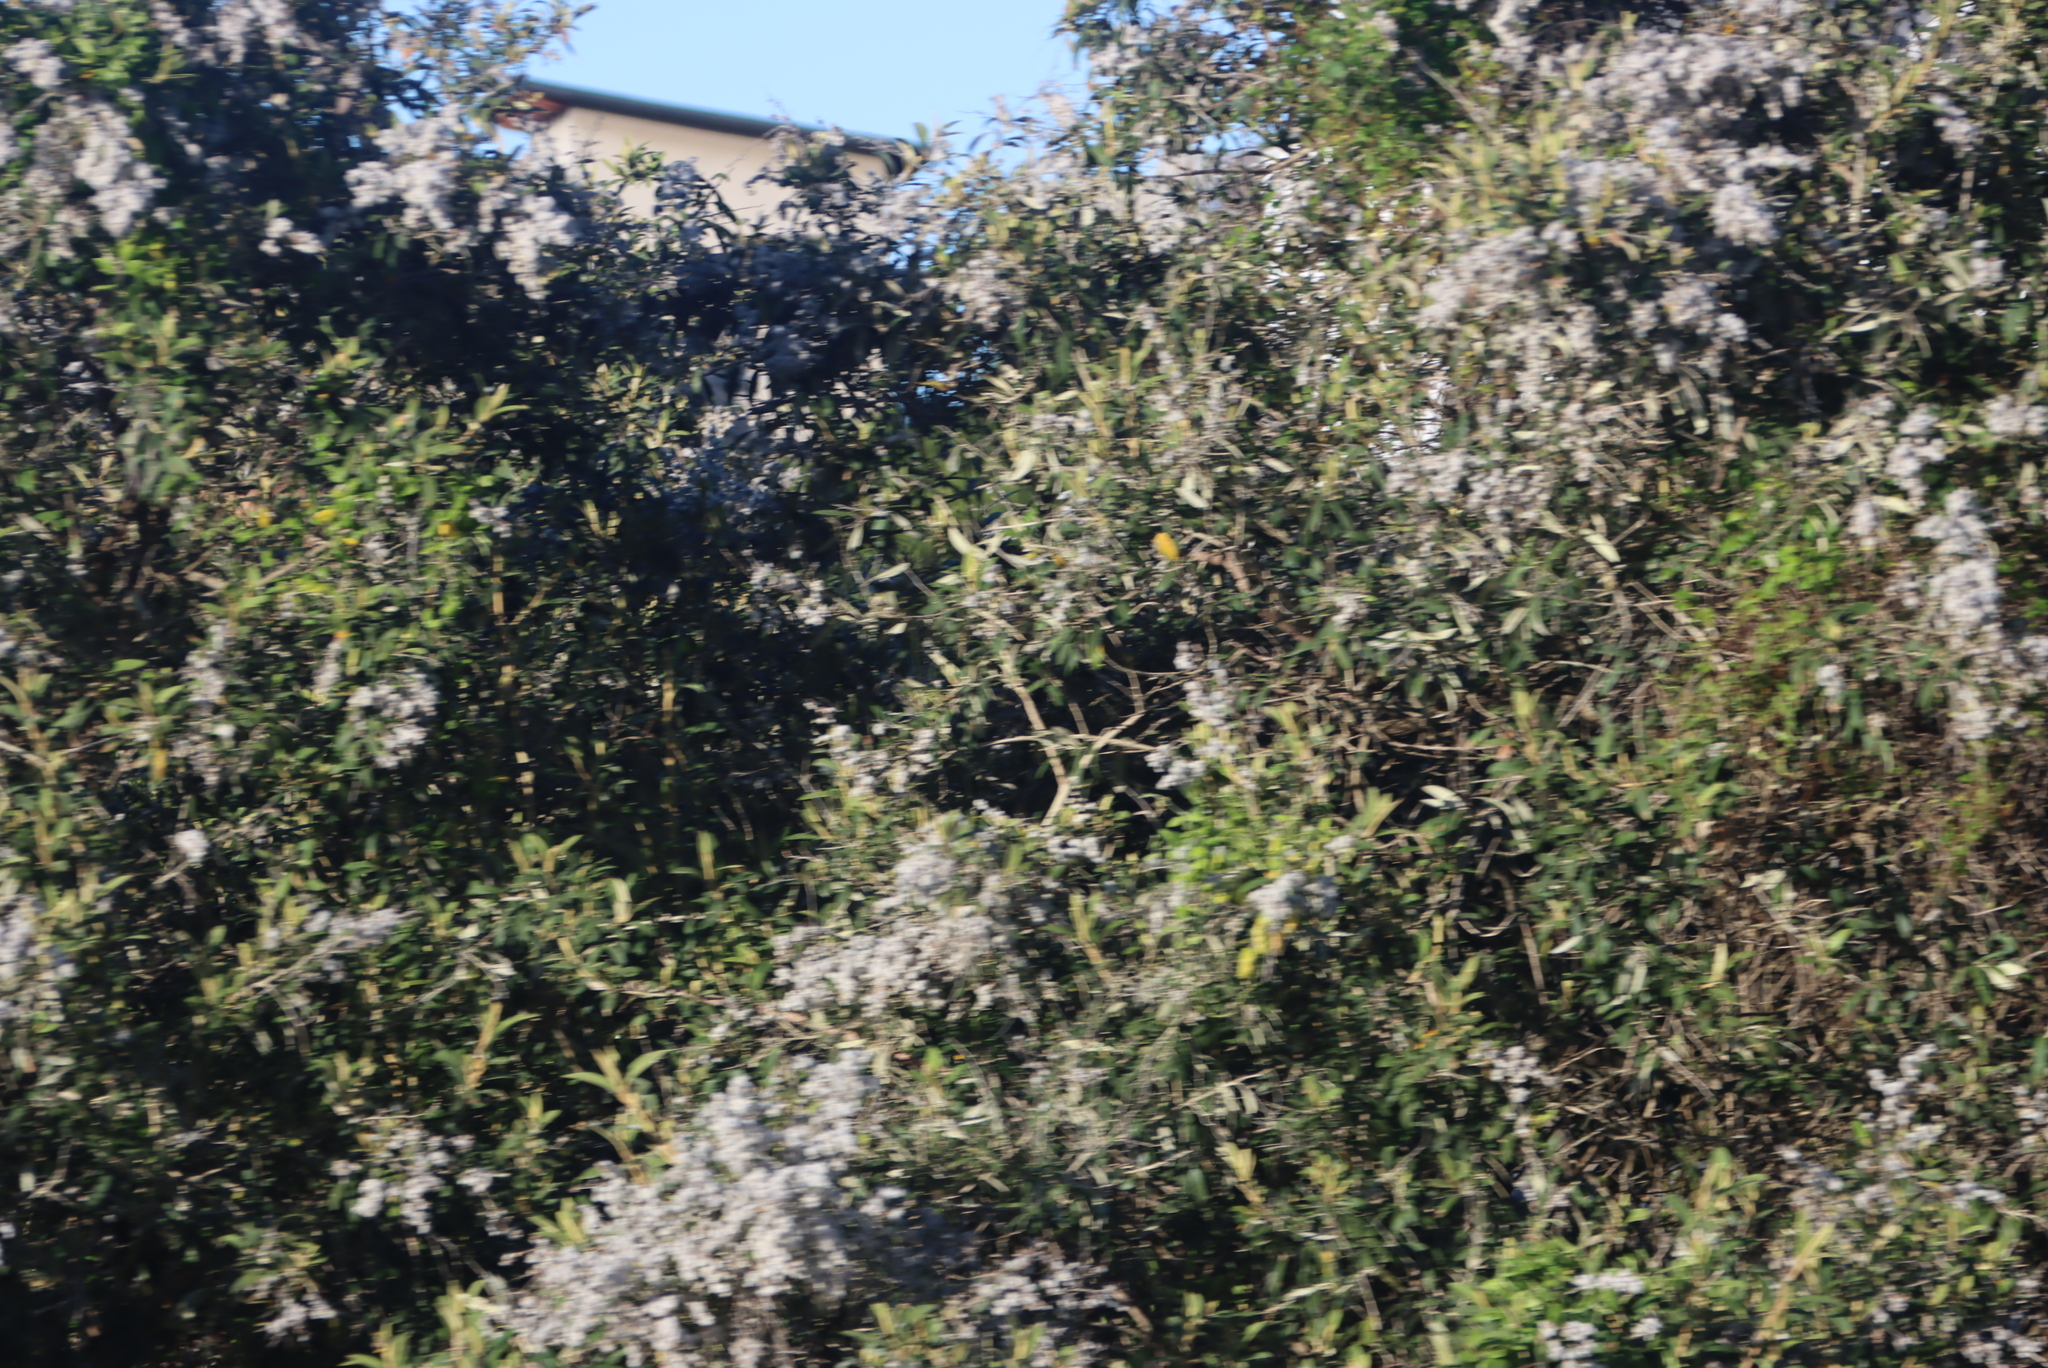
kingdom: Plantae
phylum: Tracheophyta
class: Magnoliopsida
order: Asterales
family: Asteraceae
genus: Tarchonanthus
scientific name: Tarchonanthus littoralis
